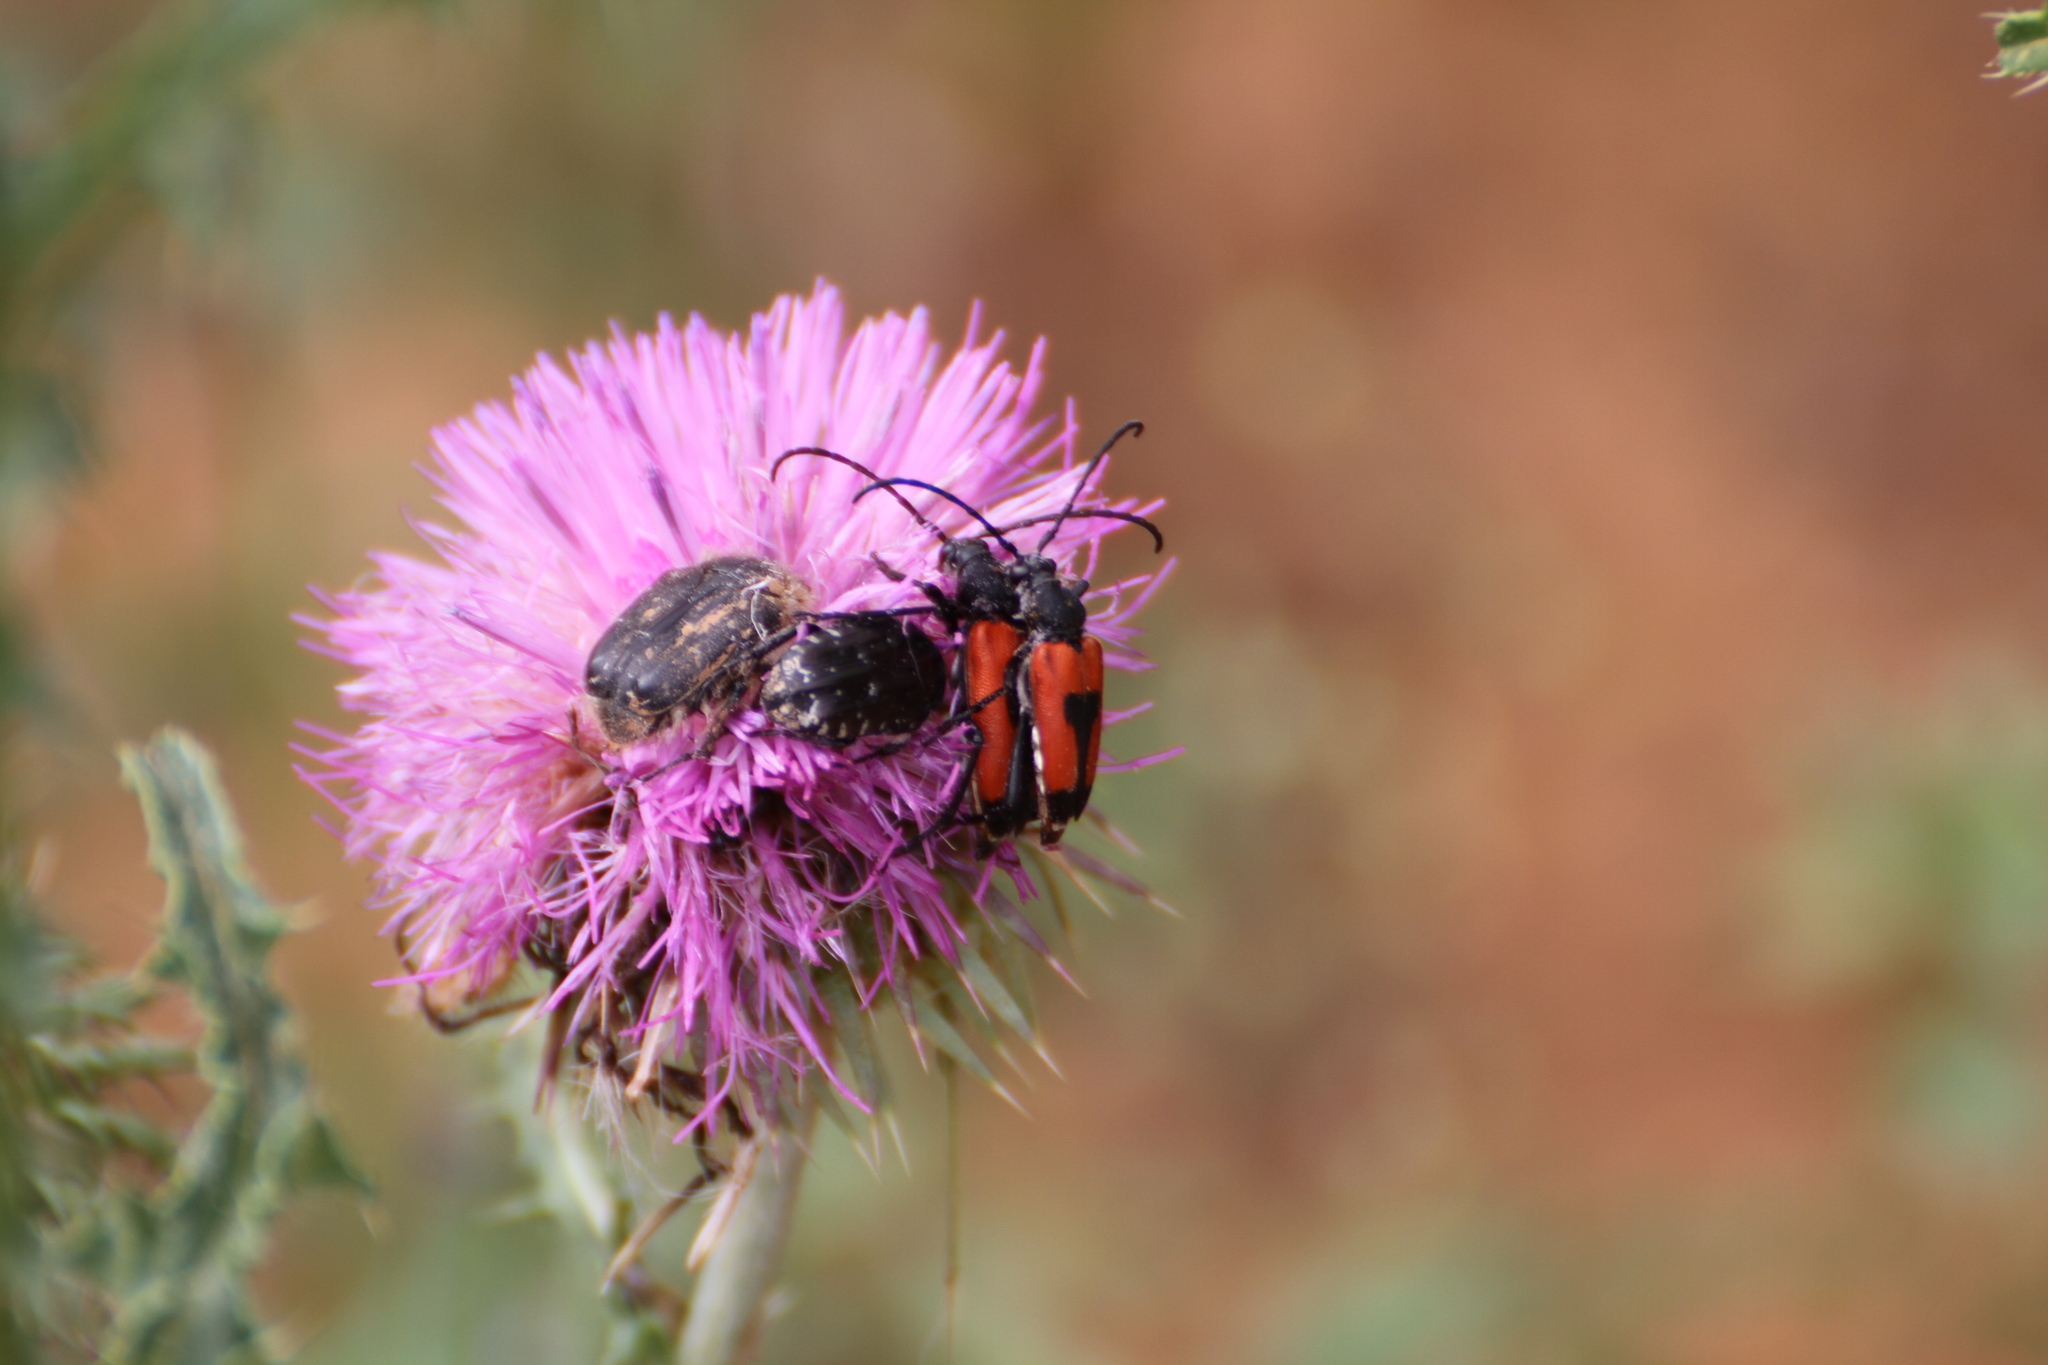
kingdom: Animalia
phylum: Arthropoda
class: Insecta
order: Coleoptera
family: Cerambycidae
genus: Stictoleptura
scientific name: Stictoleptura cordigera
